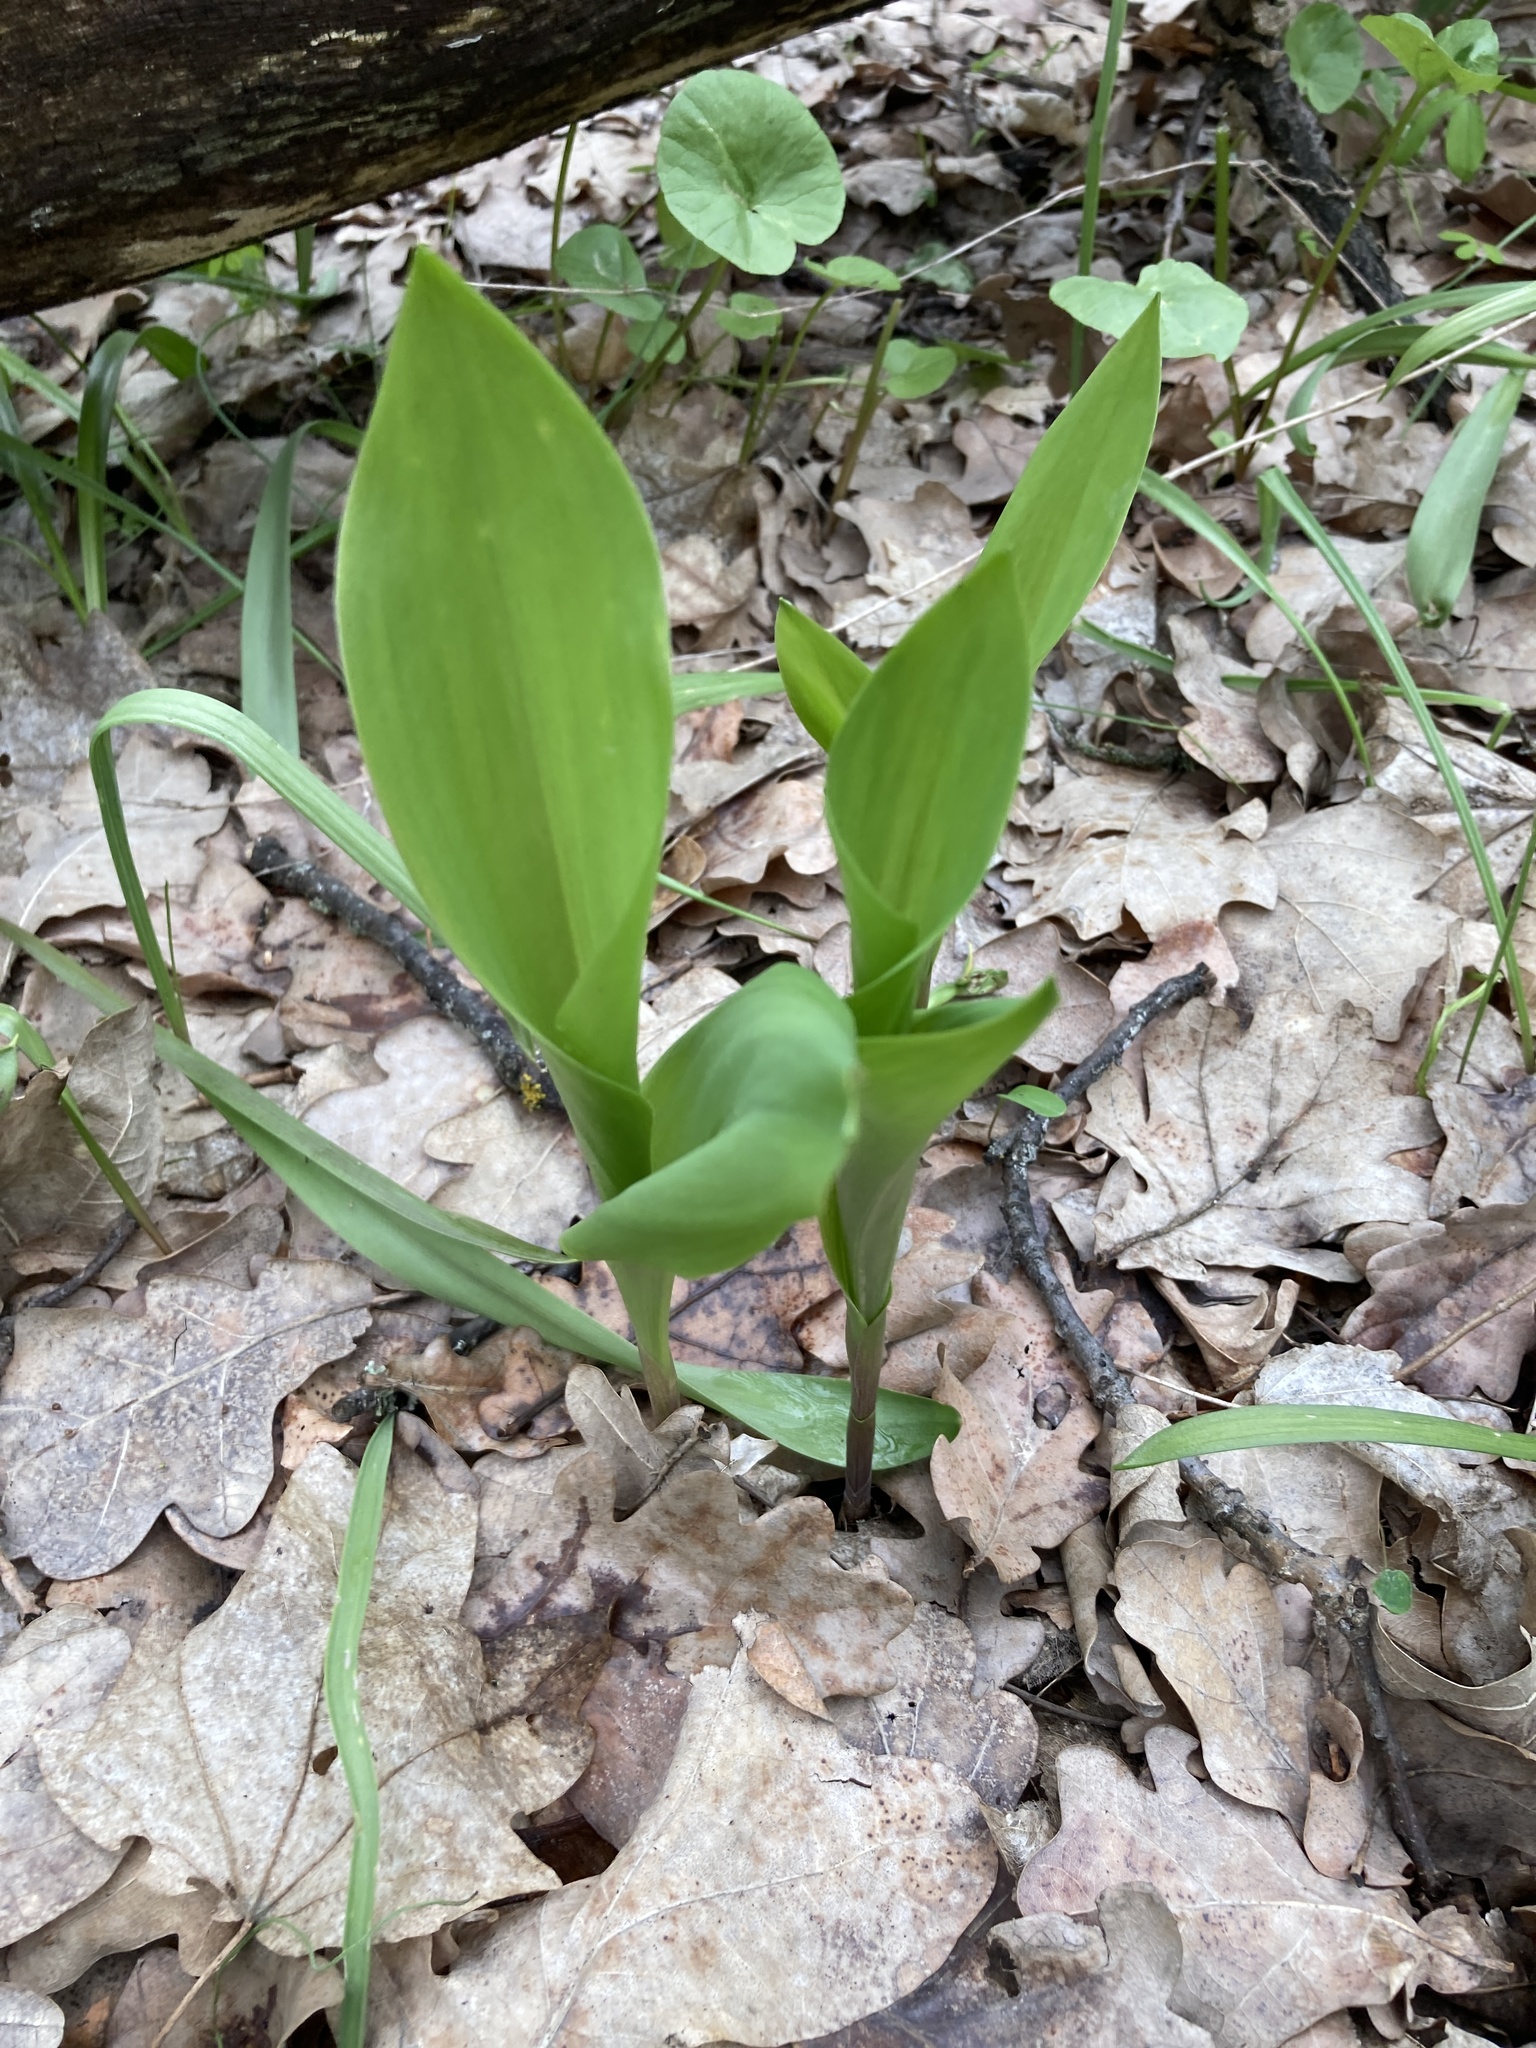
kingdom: Plantae
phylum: Tracheophyta
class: Liliopsida
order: Asparagales
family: Asparagaceae
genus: Convallaria
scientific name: Convallaria majalis
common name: Lily-of-the-valley
